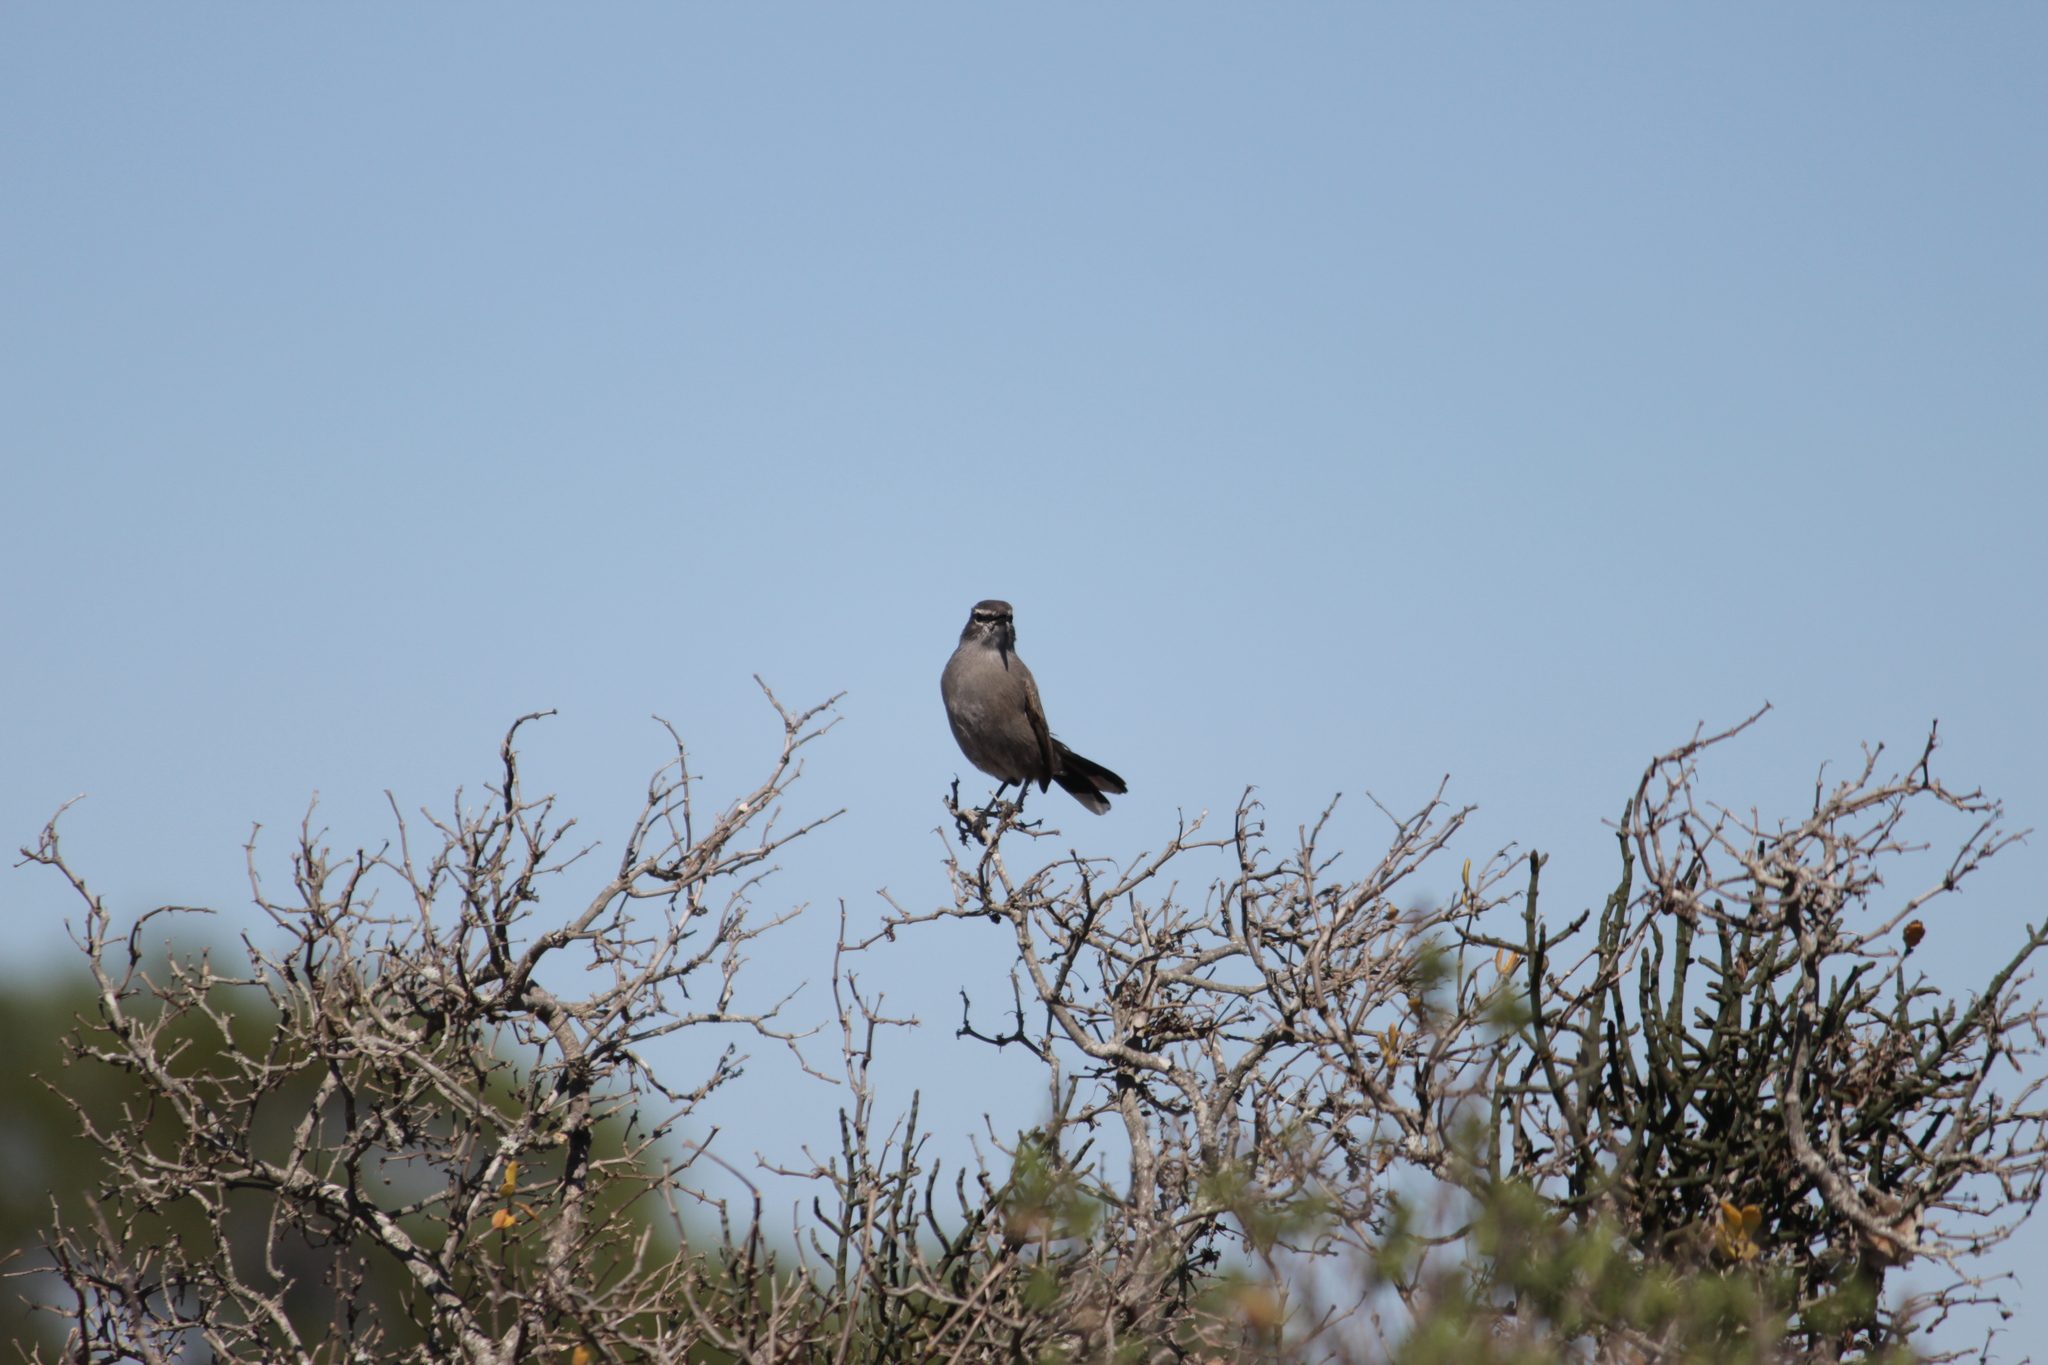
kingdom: Animalia
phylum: Chordata
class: Aves
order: Passeriformes
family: Muscicapidae
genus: Erythropygia
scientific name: Erythropygia coryphoeus
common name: Karoo scrub robin
